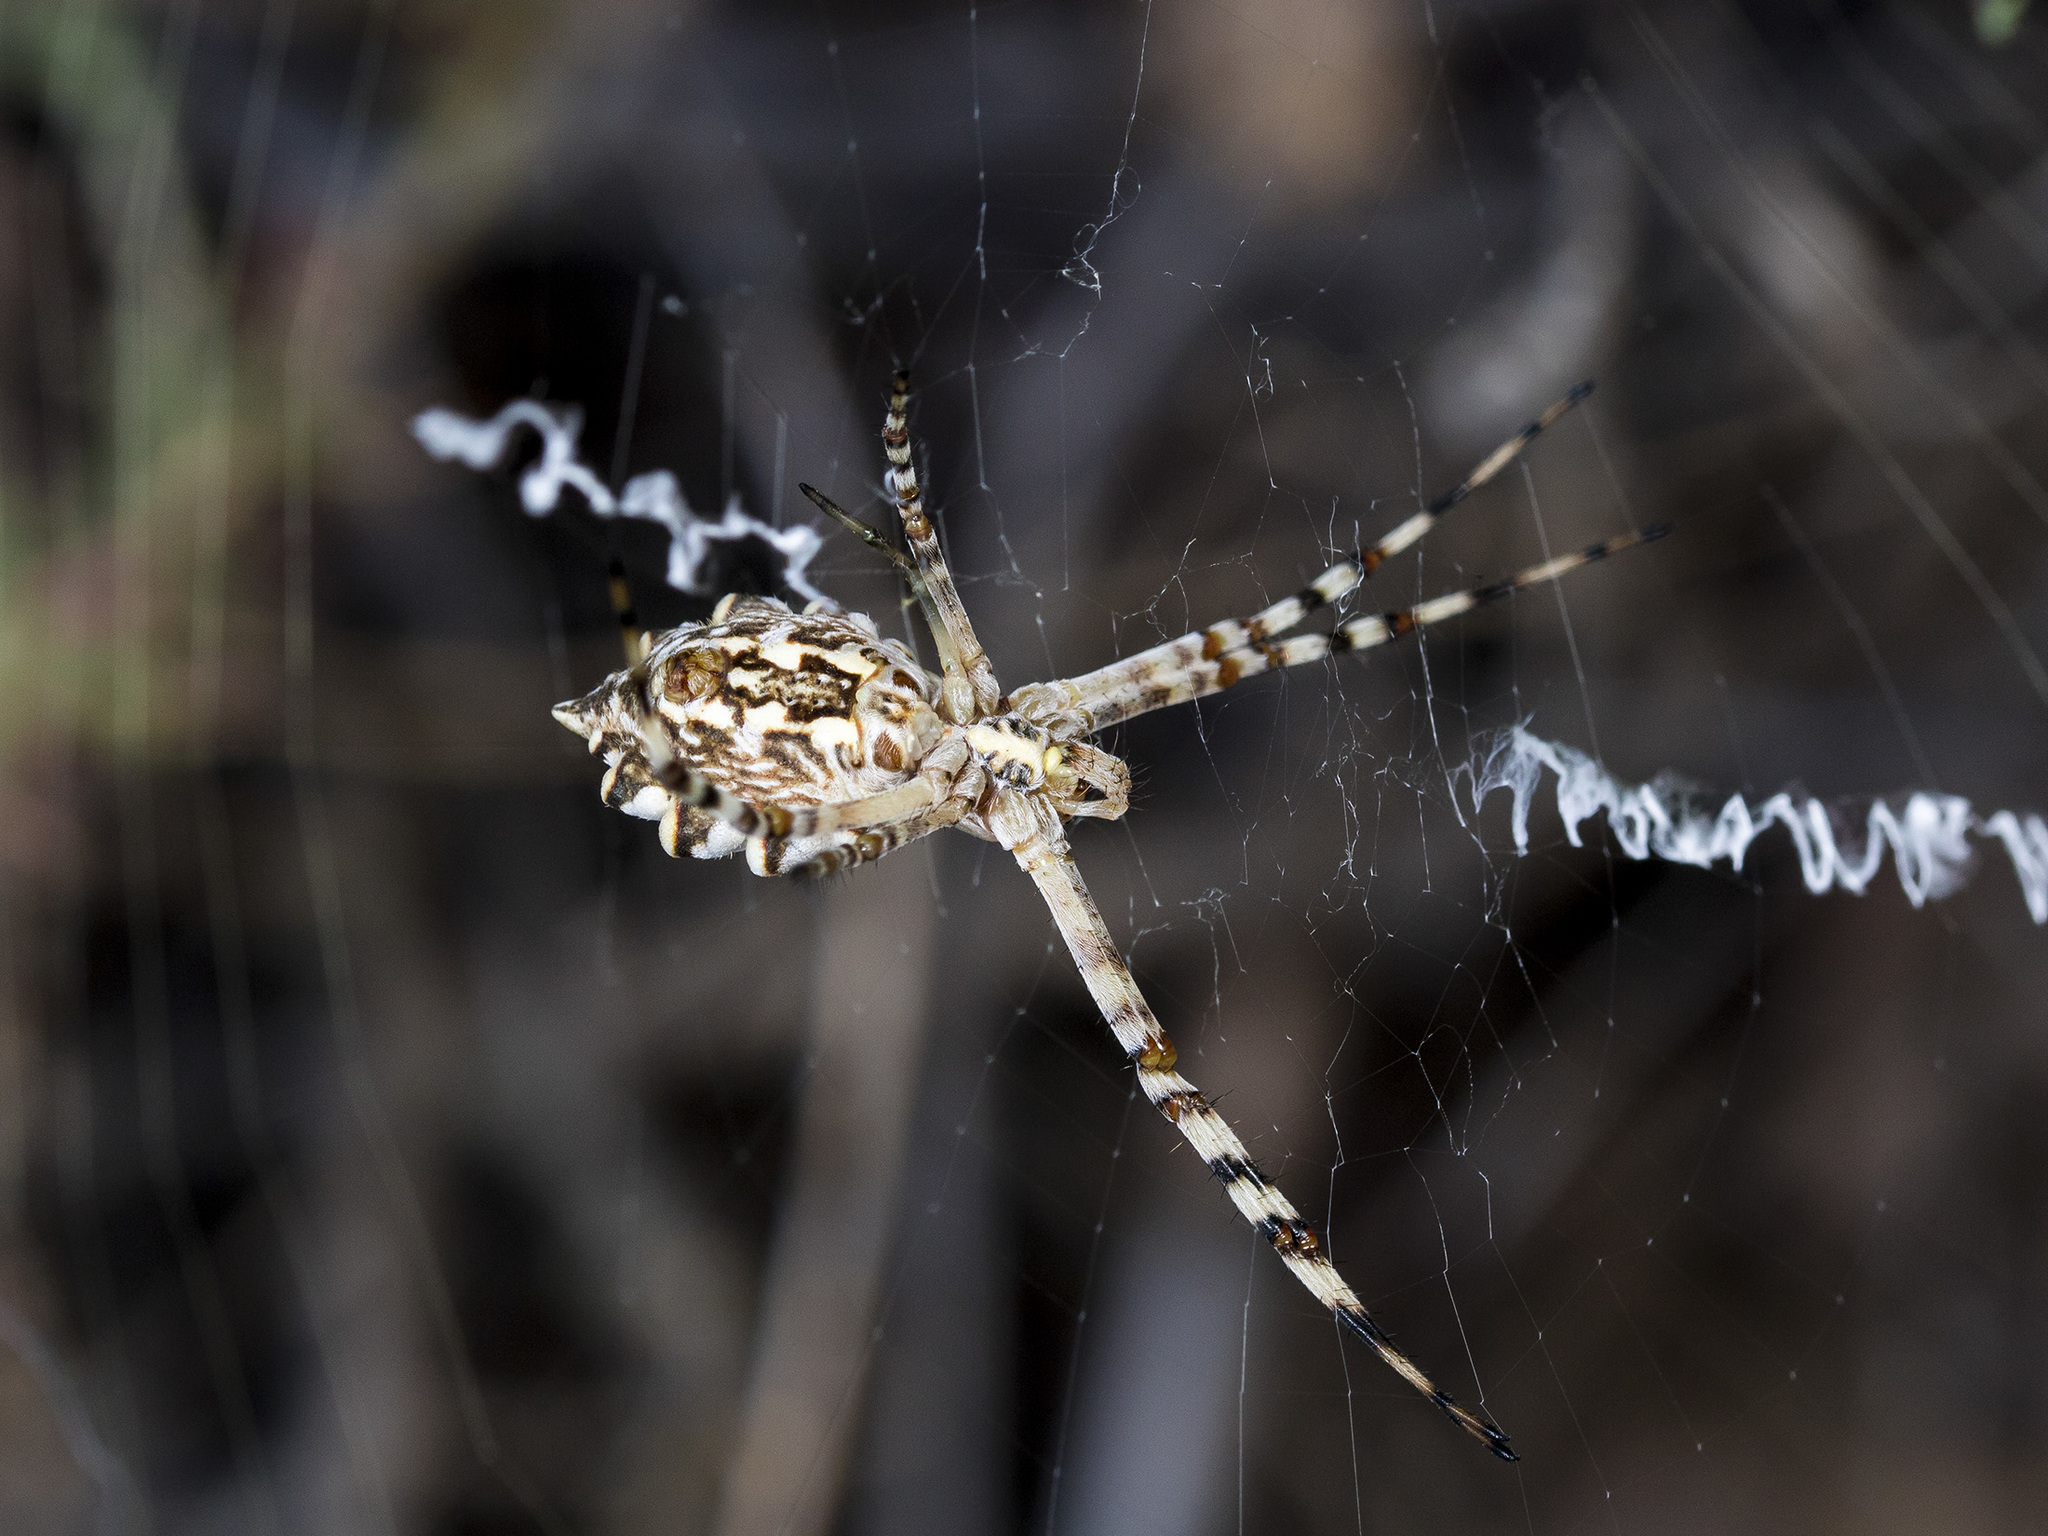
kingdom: Animalia
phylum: Arthropoda
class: Arachnida
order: Araneae
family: Araneidae
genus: Argiope
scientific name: Argiope lobata
